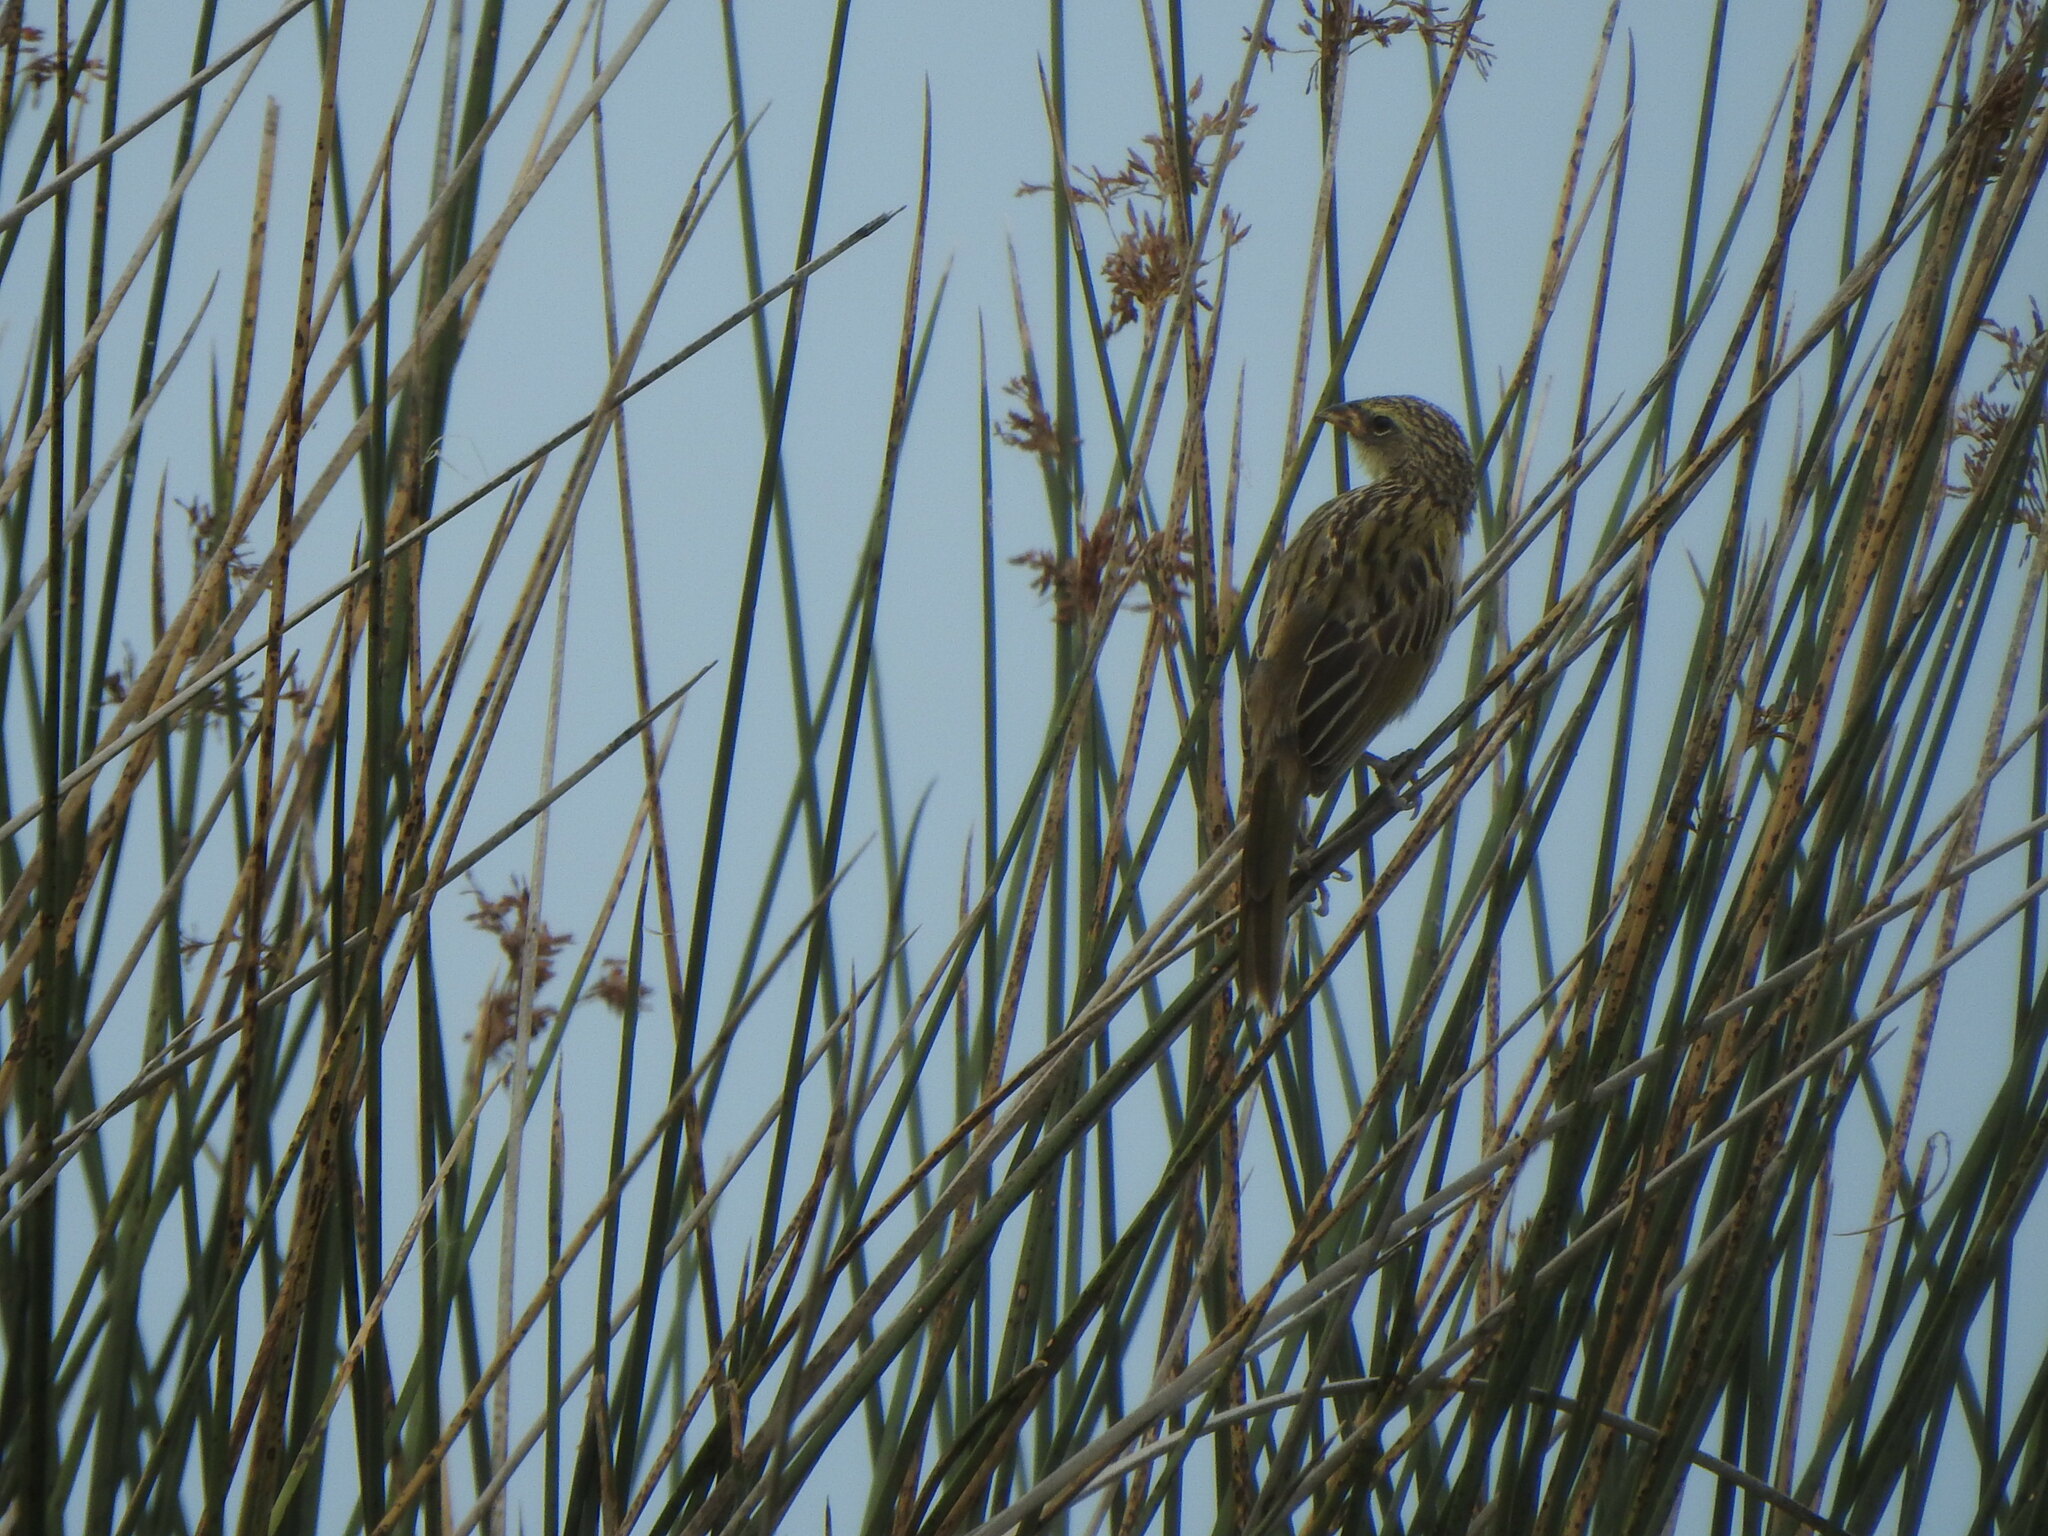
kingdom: Animalia
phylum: Chordata
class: Aves
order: Passeriformes
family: Thraupidae
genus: Embernagra
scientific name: Embernagra platensis
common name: Pampa finch
